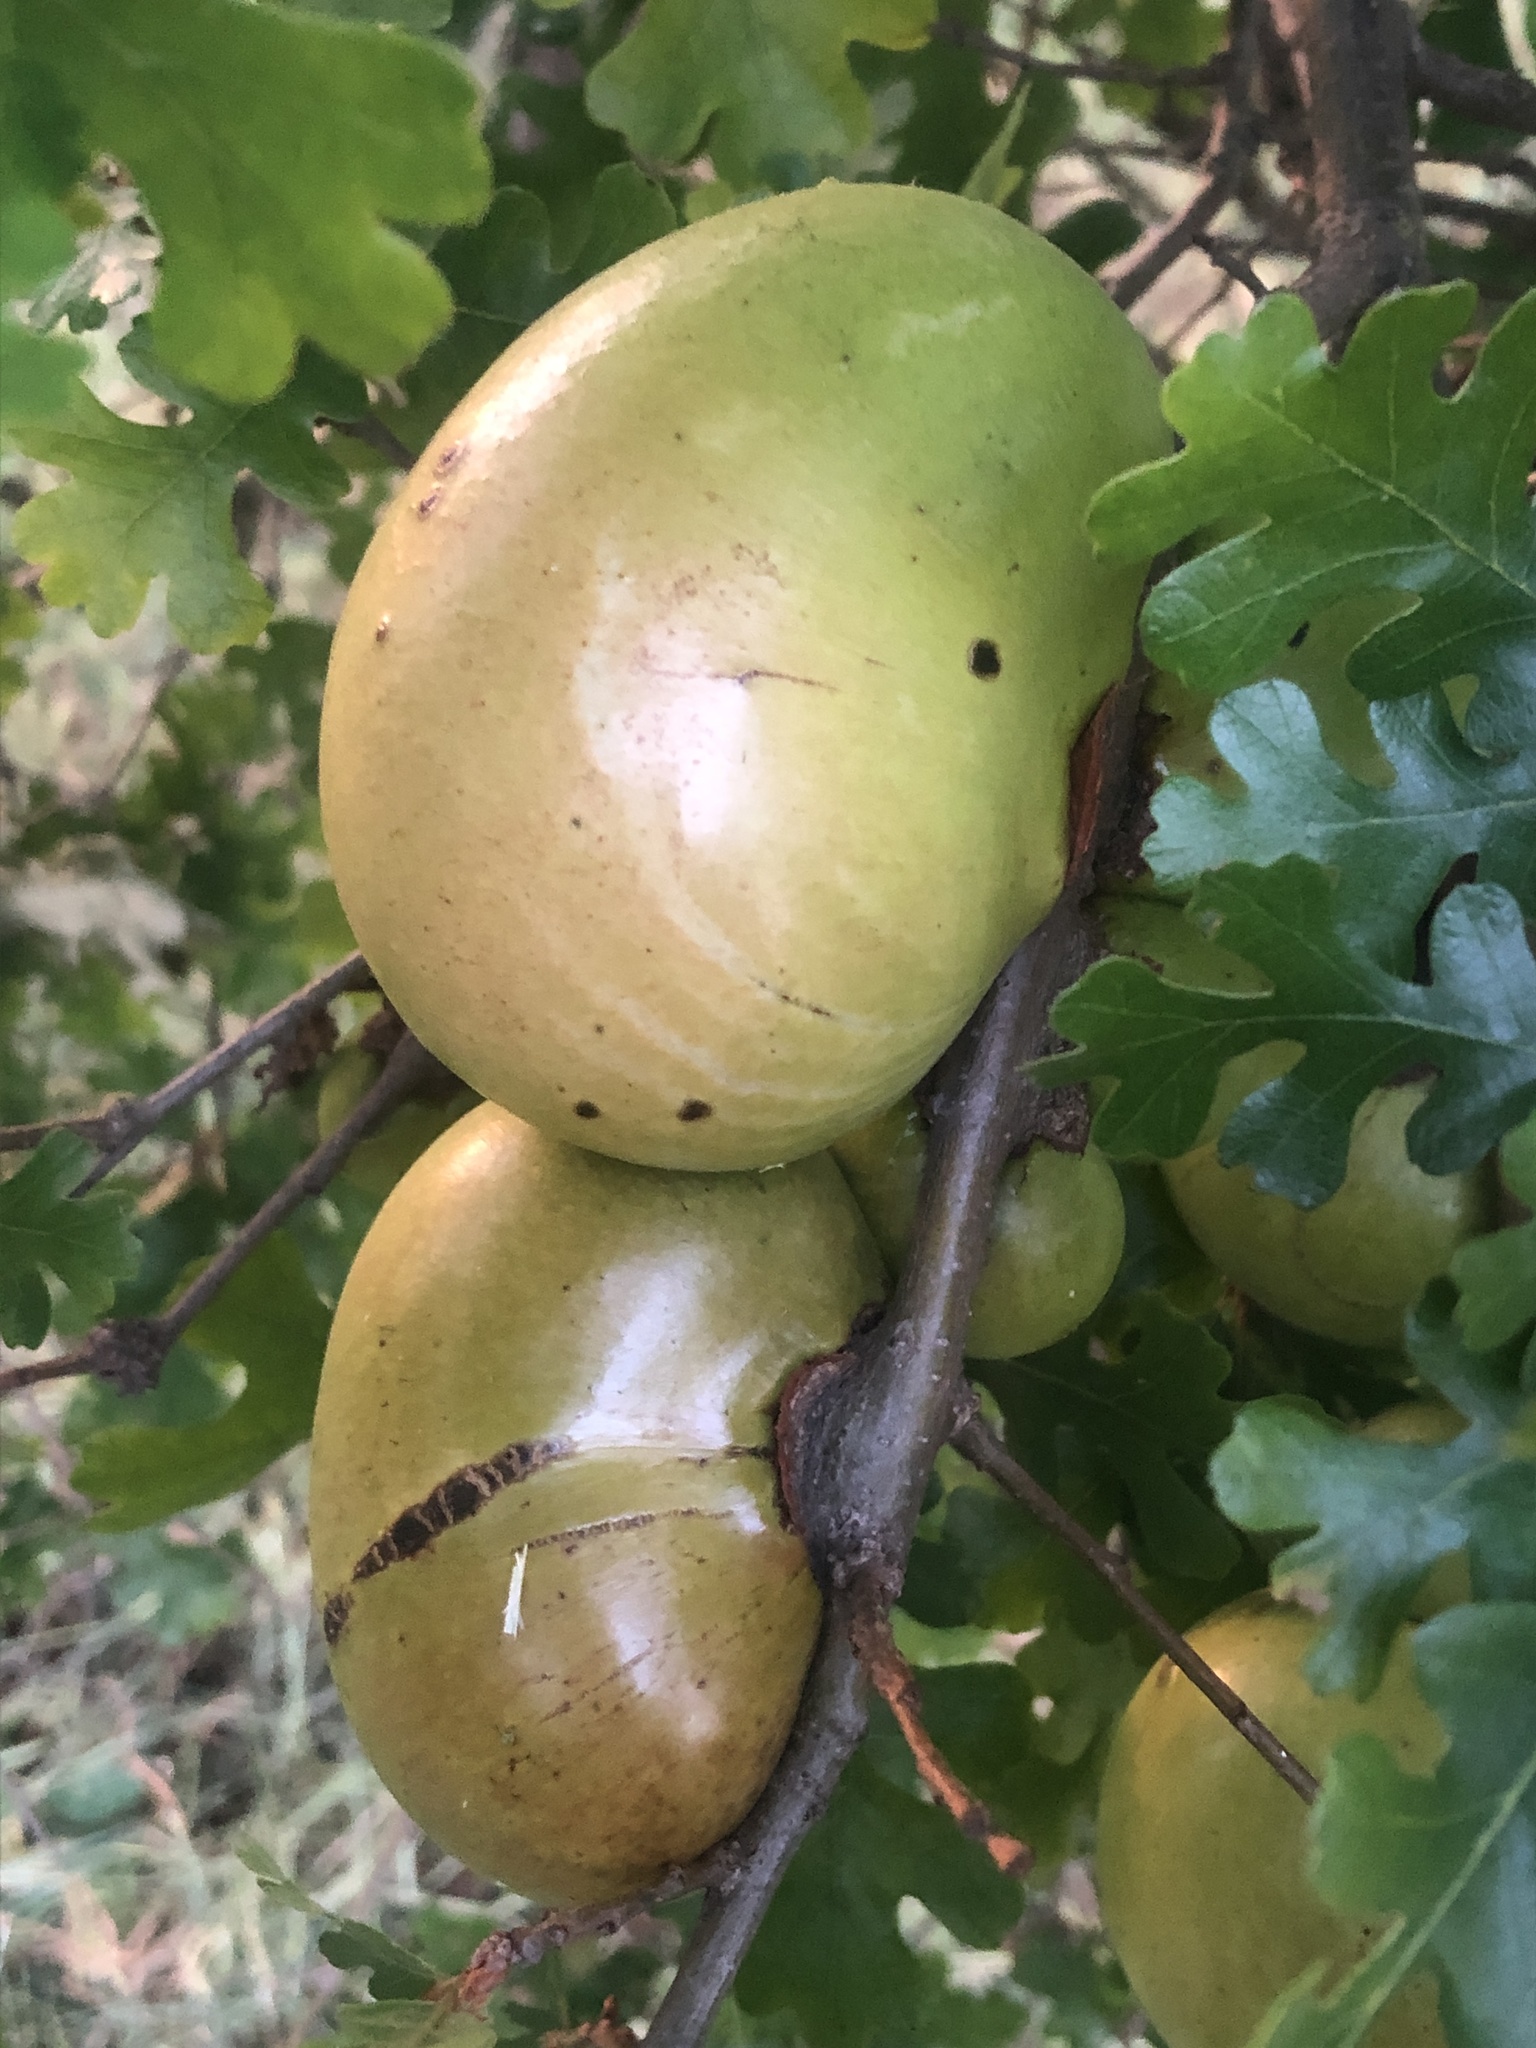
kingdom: Animalia
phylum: Arthropoda
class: Insecta
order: Hymenoptera
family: Cynipidae
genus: Andricus
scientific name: Andricus quercuscalifornicus
